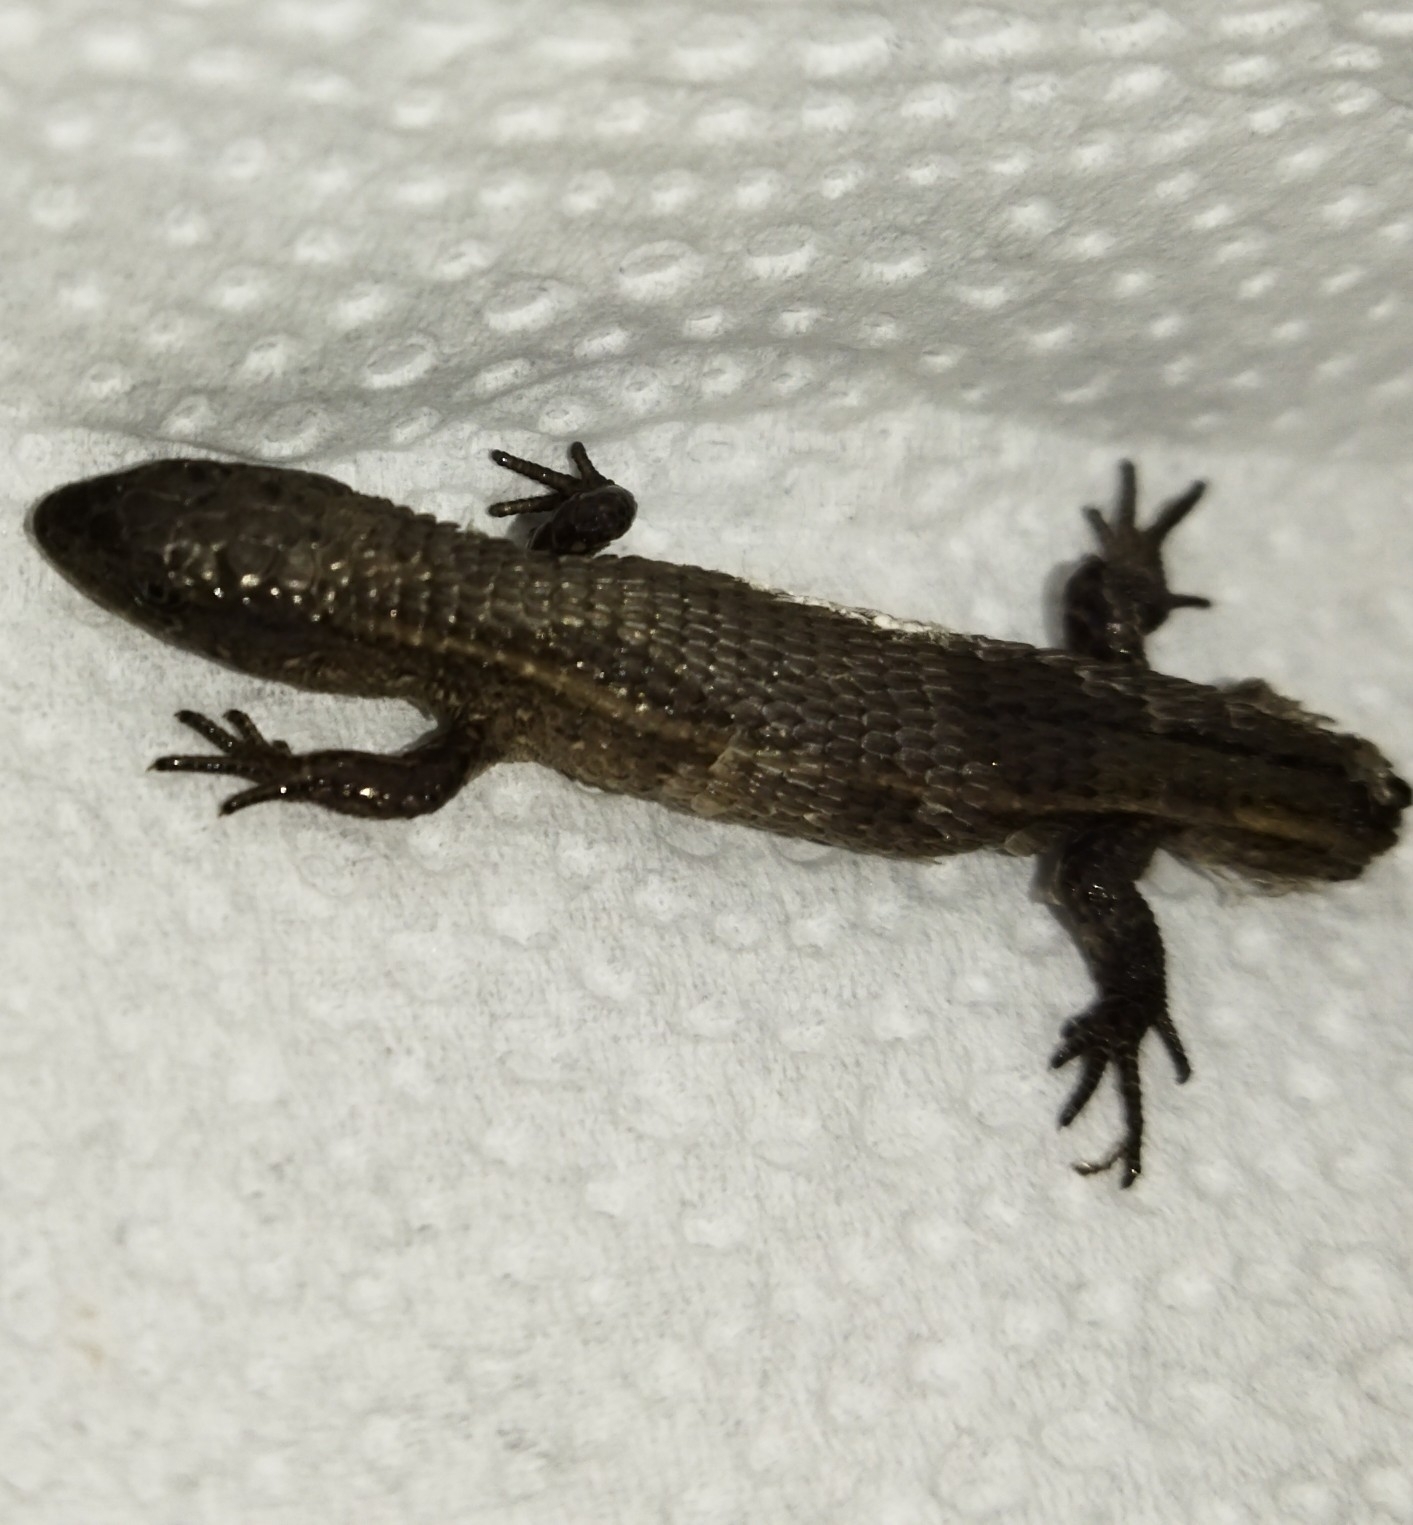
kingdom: Animalia
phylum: Chordata
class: Squamata
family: Gymnophthalmidae
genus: Cercosaura
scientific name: Cercosaura schreibersii
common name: Schreibers' many-fingered teiid
